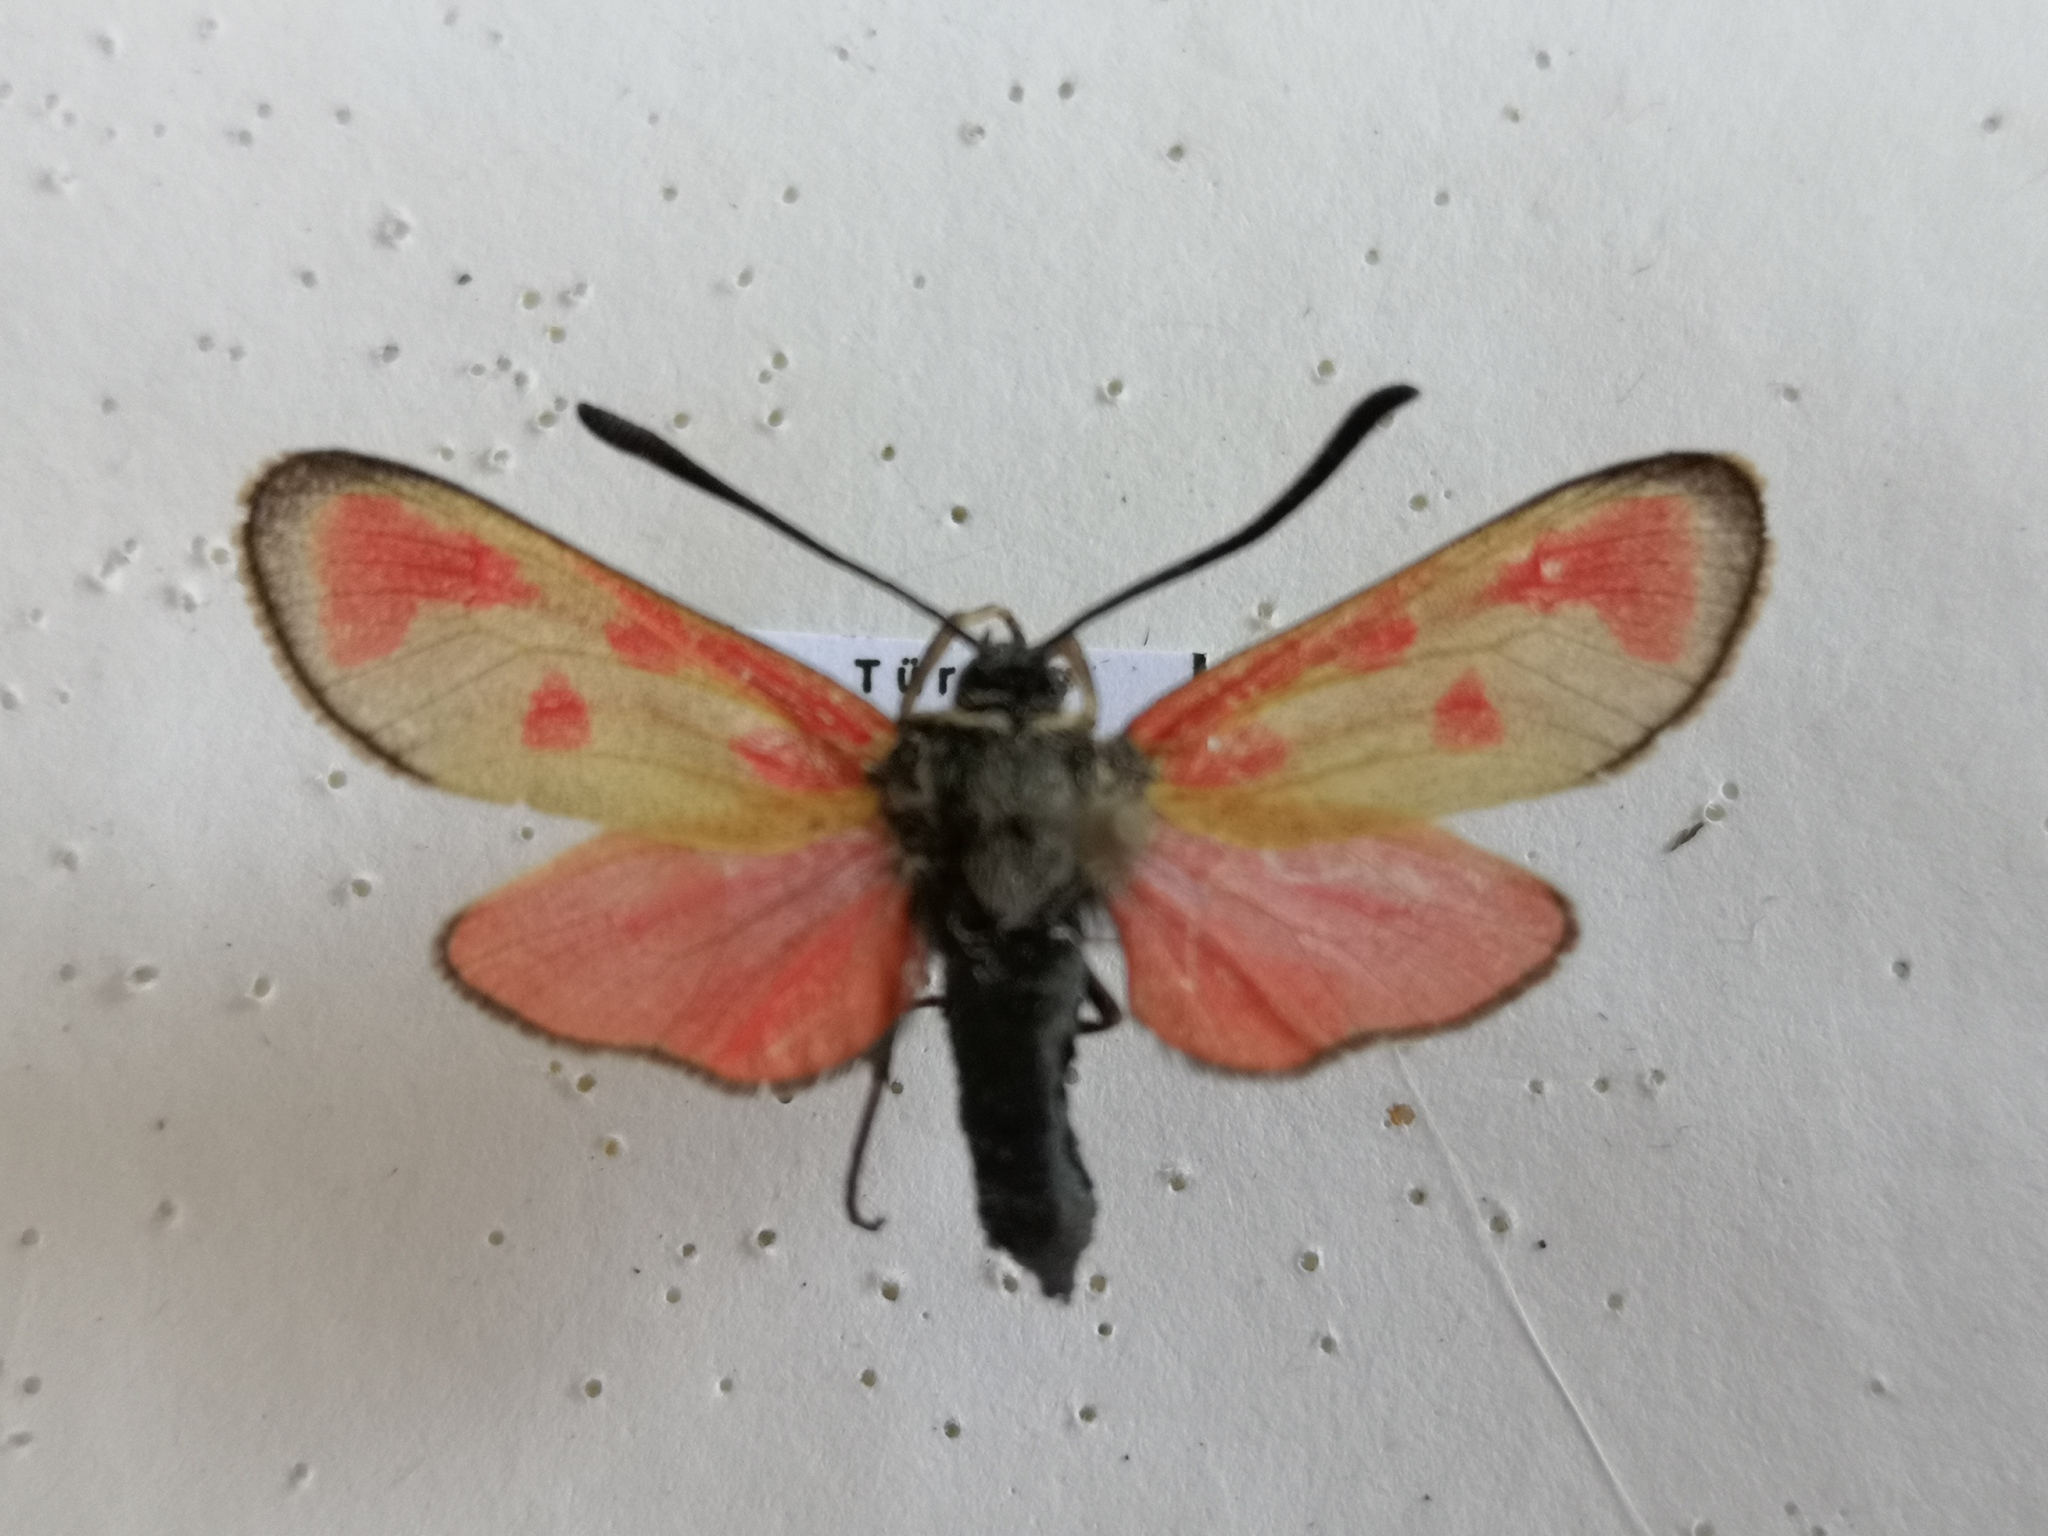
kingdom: Animalia
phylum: Arthropoda
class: Insecta
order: Lepidoptera
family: Zygaenidae
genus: Zygaena
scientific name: Zygaena loti
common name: Slender scotch burnet
